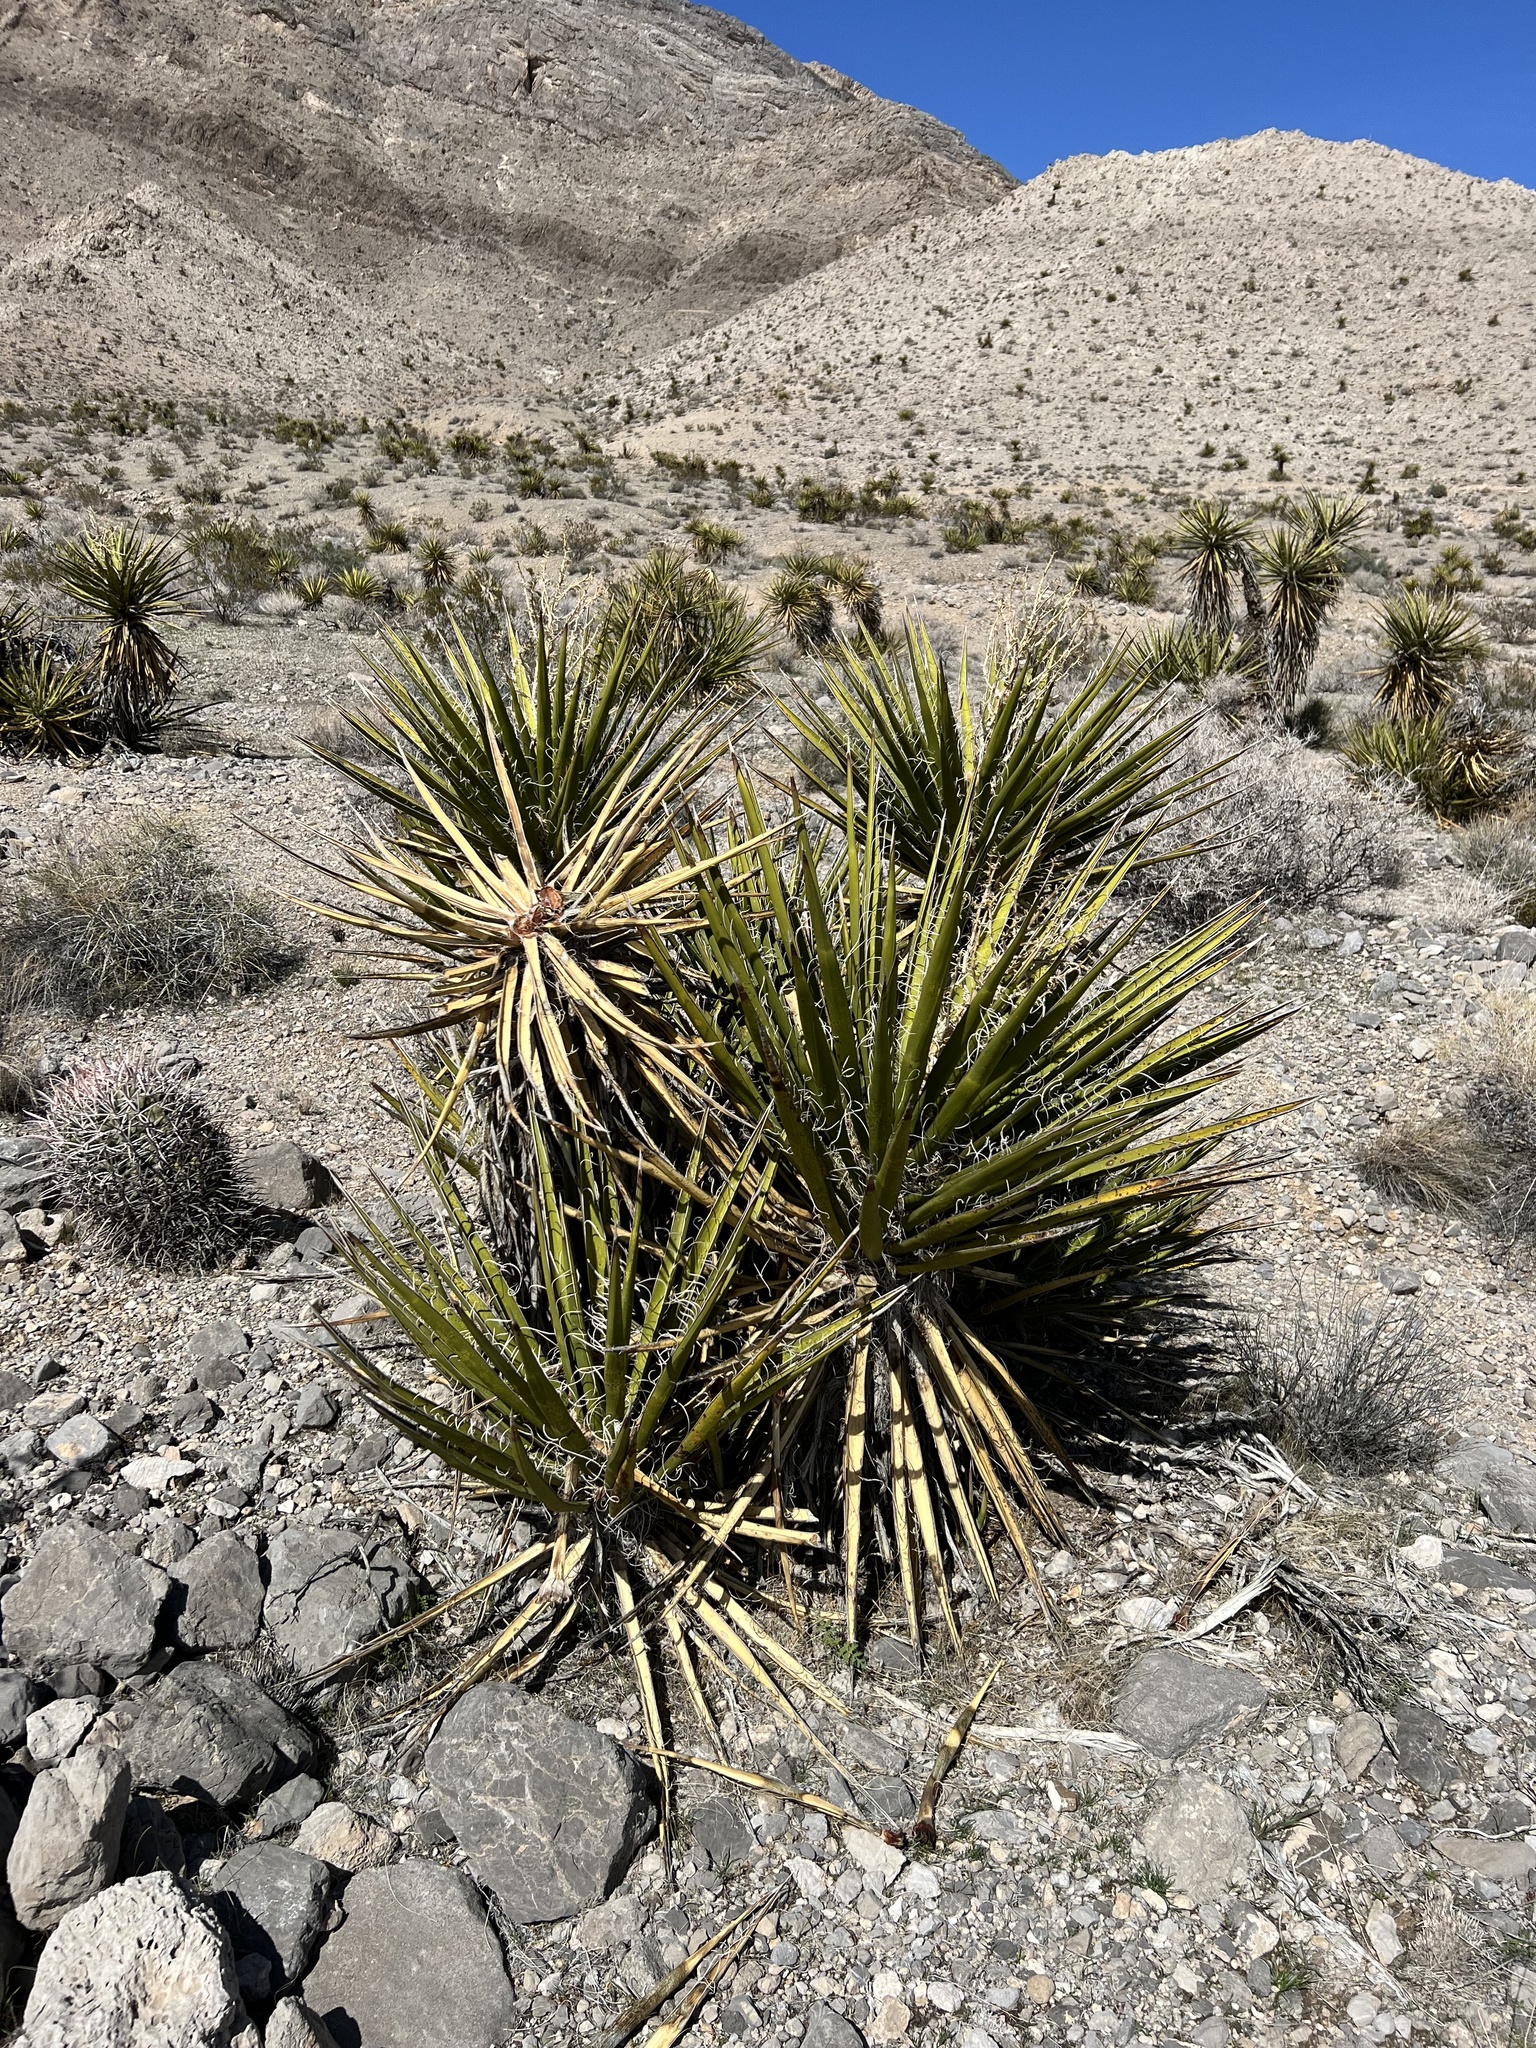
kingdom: Plantae
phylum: Tracheophyta
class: Liliopsida
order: Asparagales
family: Asparagaceae
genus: Yucca
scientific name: Yucca schidigera
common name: Mojave yucca
